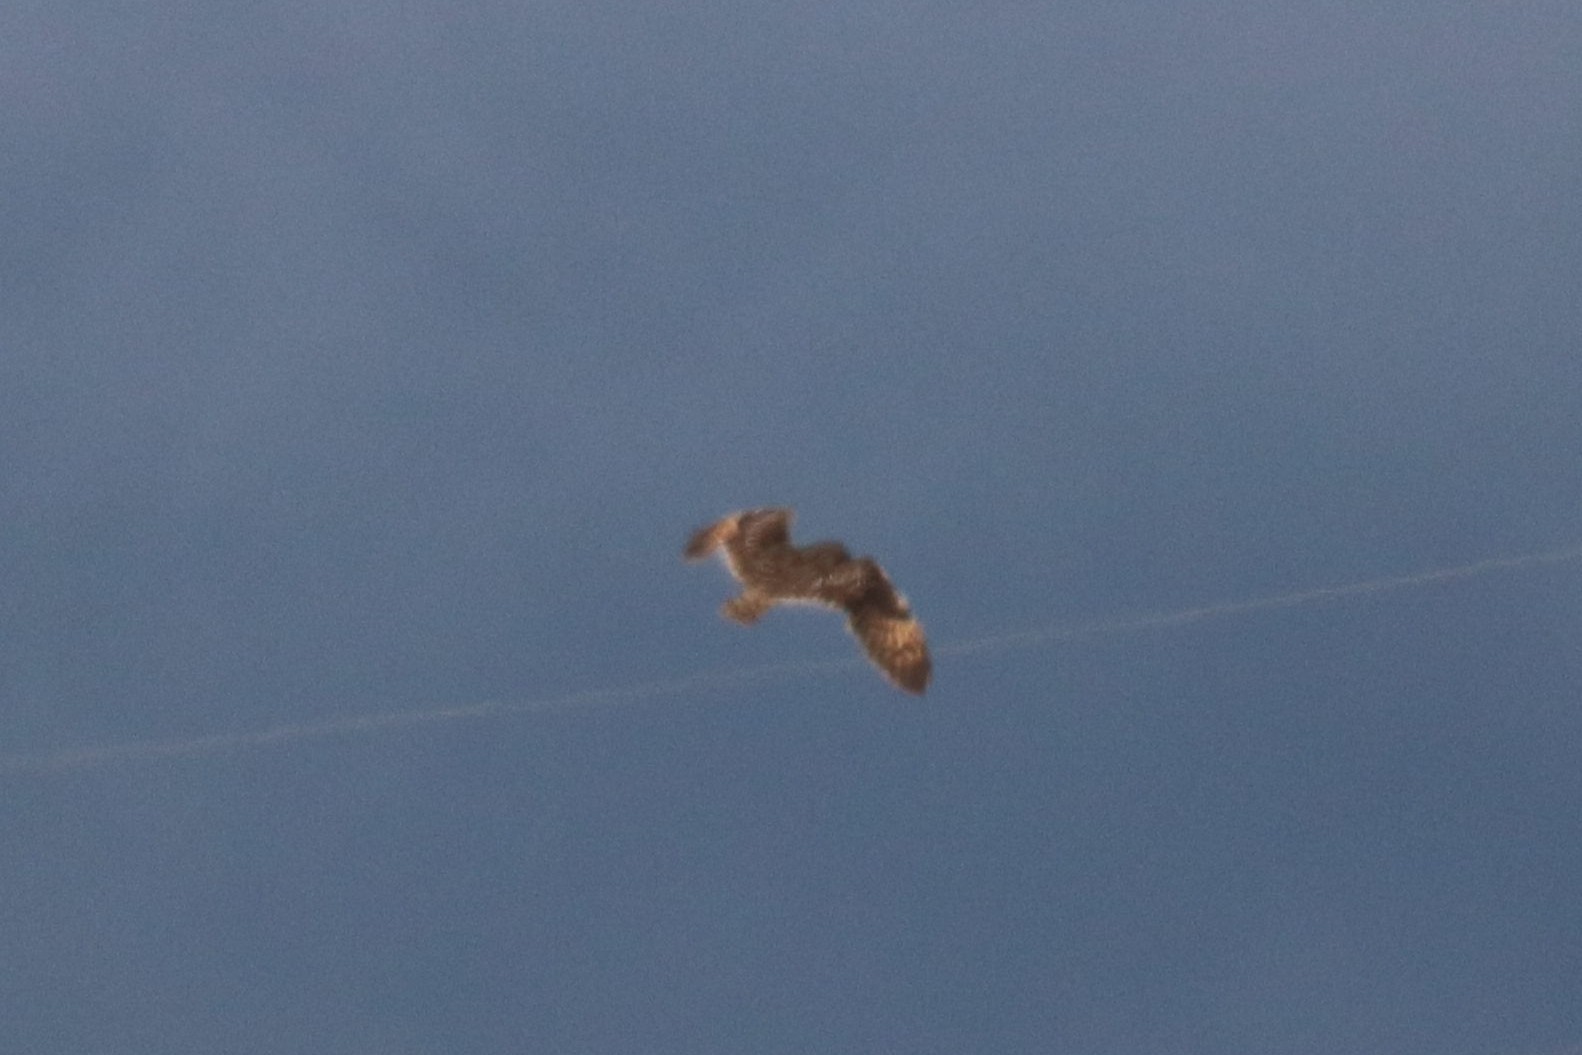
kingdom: Animalia
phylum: Chordata
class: Aves
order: Strigiformes
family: Strigidae
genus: Asio
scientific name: Asio flammeus
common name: Short-eared owl
